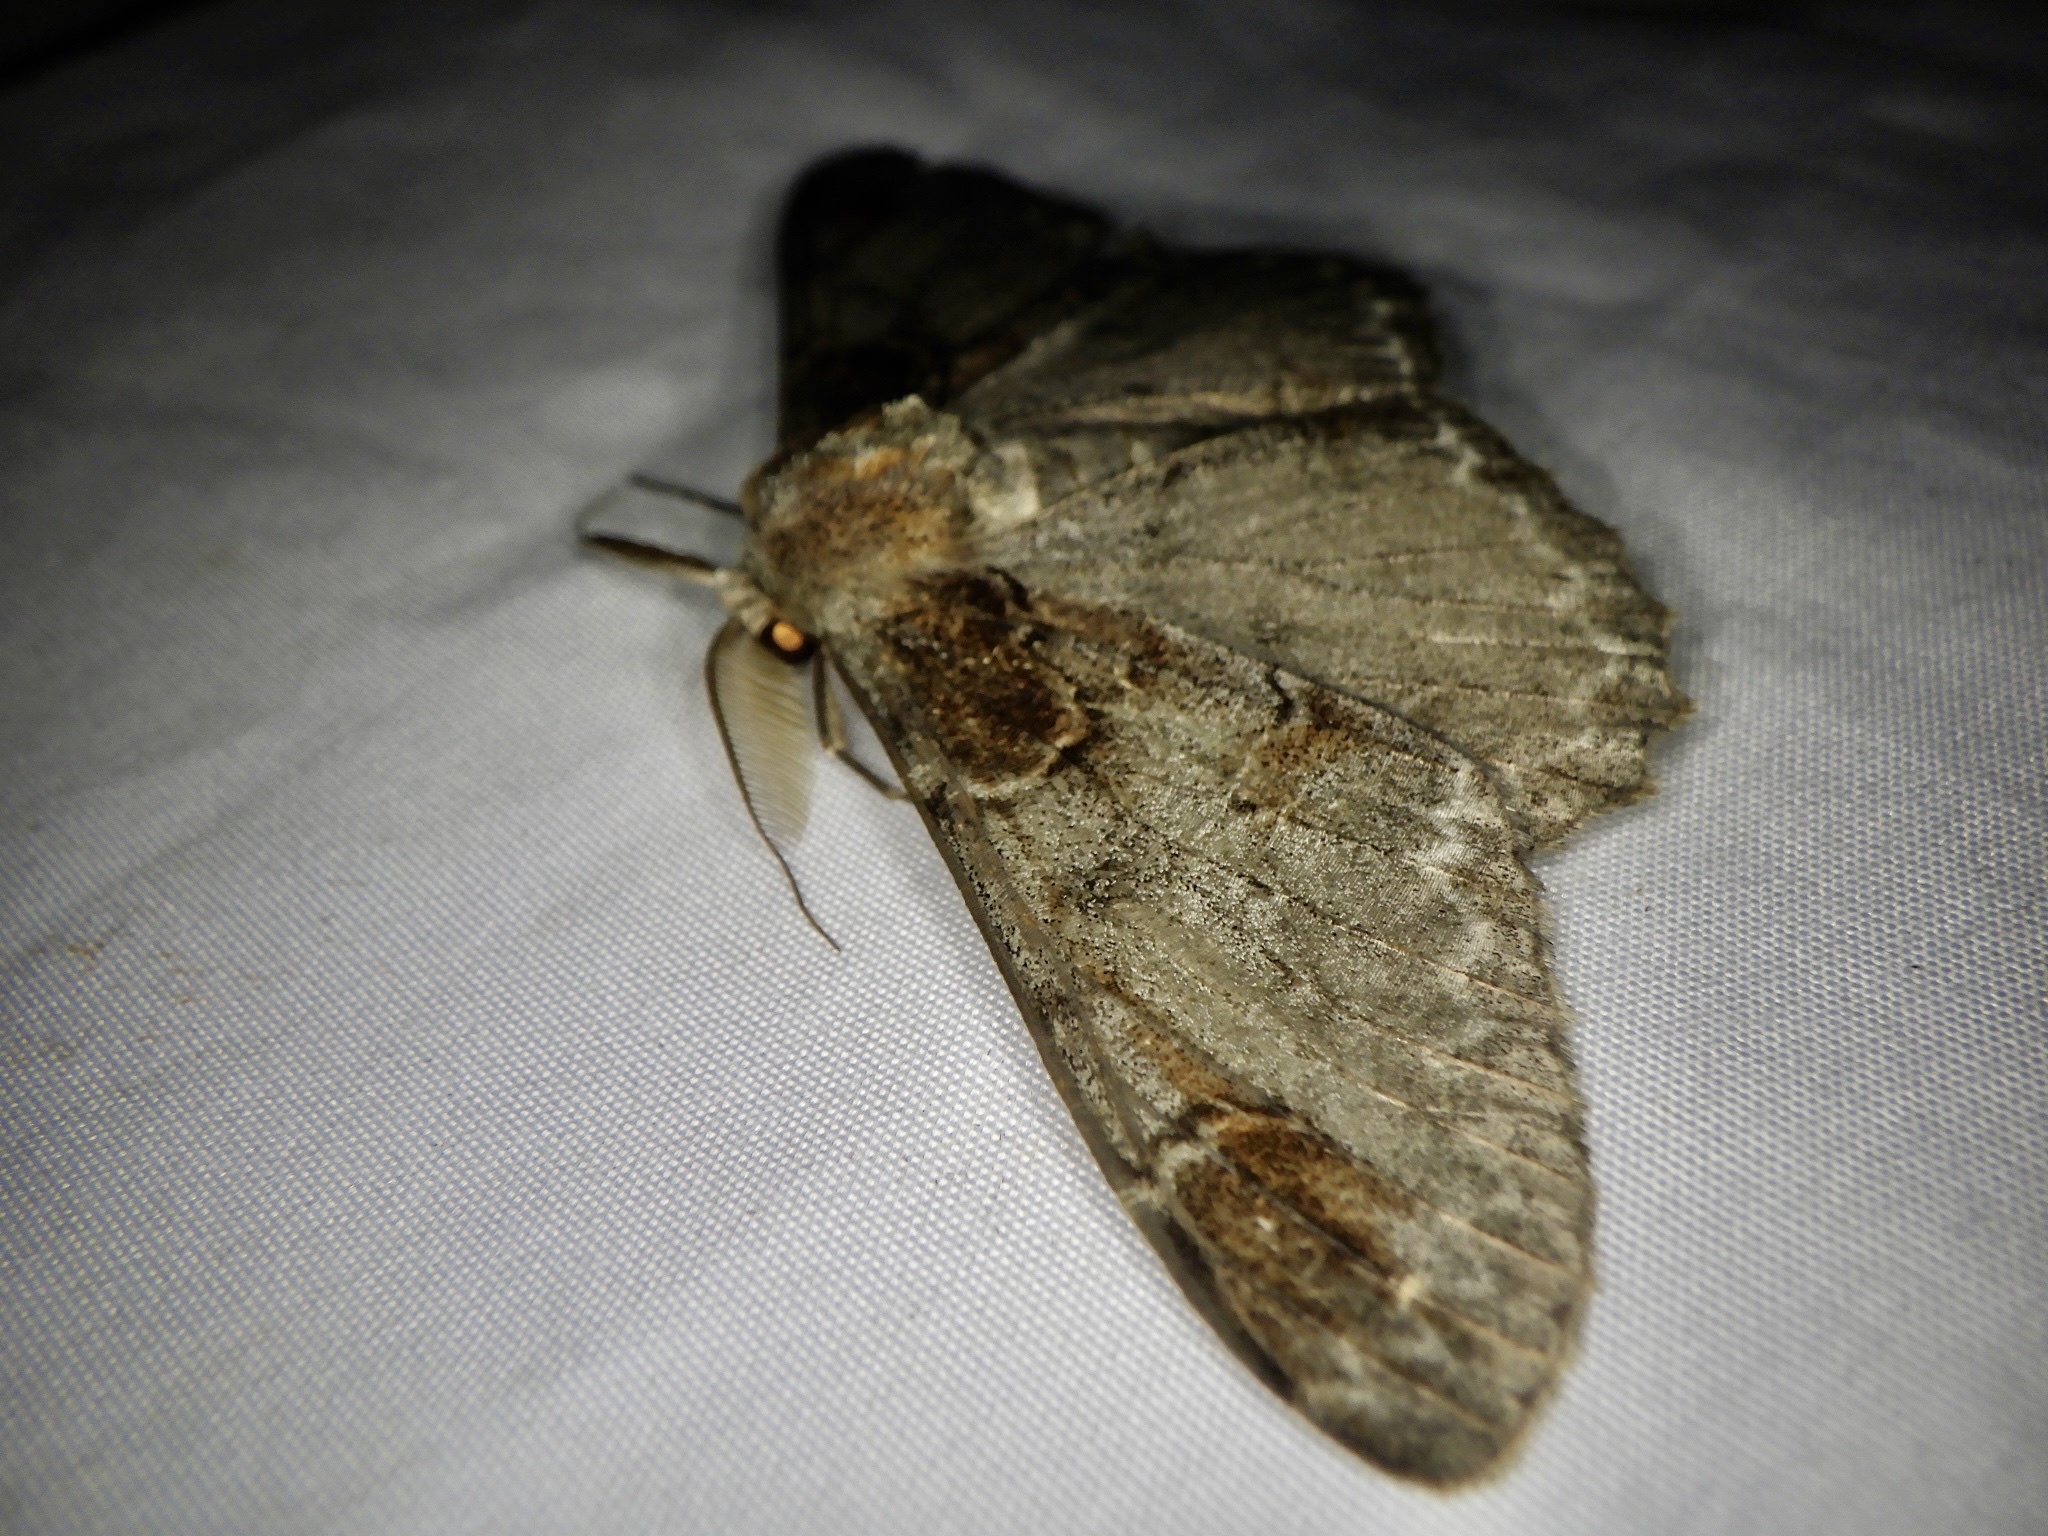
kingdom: Animalia
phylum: Arthropoda
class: Insecta
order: Lepidoptera
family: Geometridae
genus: Amraica
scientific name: Amraica superans
